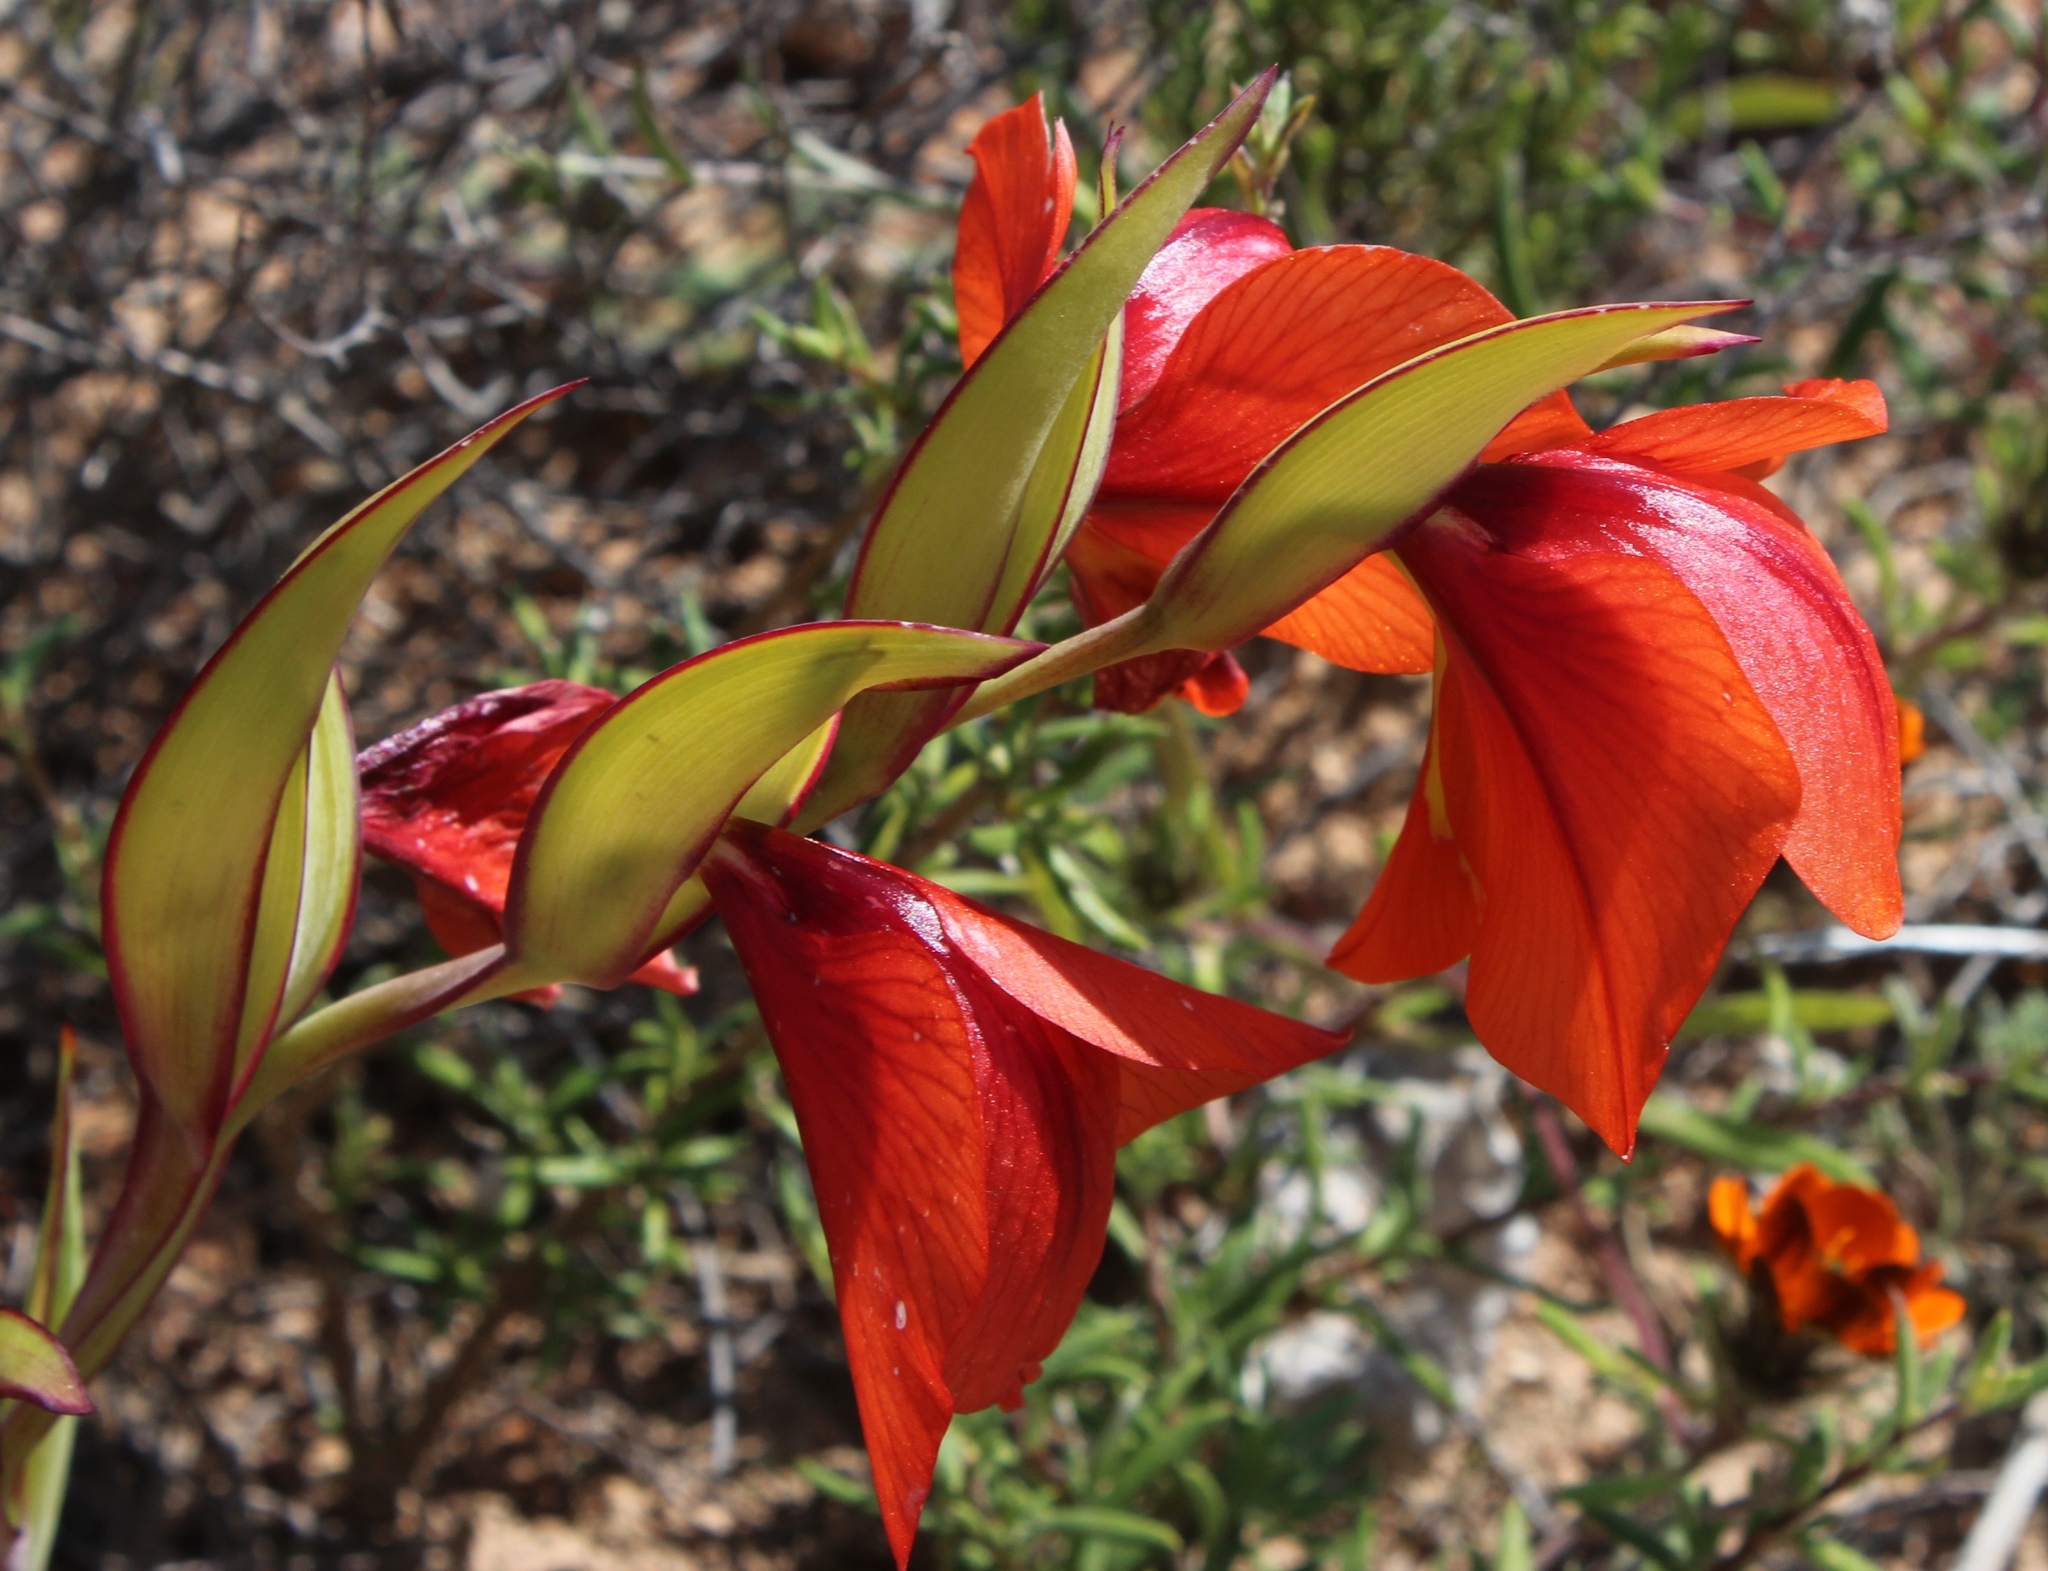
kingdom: Plantae
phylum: Tracheophyta
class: Liliopsida
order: Asparagales
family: Iridaceae
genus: Gladiolus
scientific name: Gladiolus equitans
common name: Large red kalkoentjie
